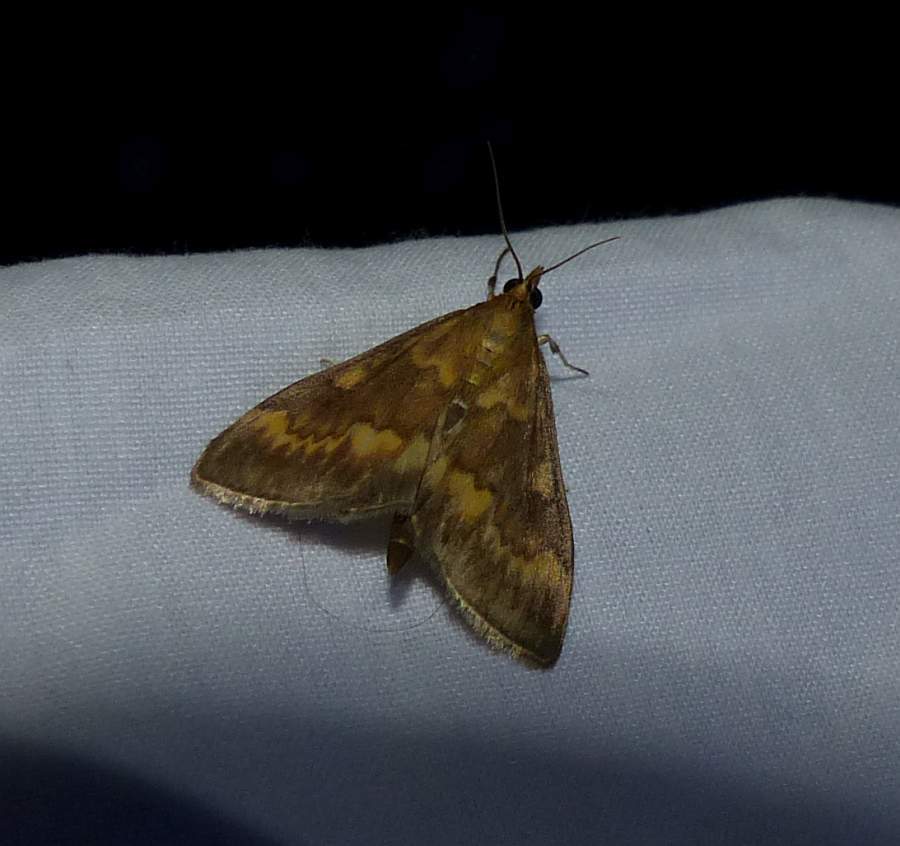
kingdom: Animalia
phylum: Arthropoda
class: Insecta
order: Lepidoptera
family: Crambidae
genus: Ostrinia
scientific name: Ostrinia nubilalis
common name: European corn borer
